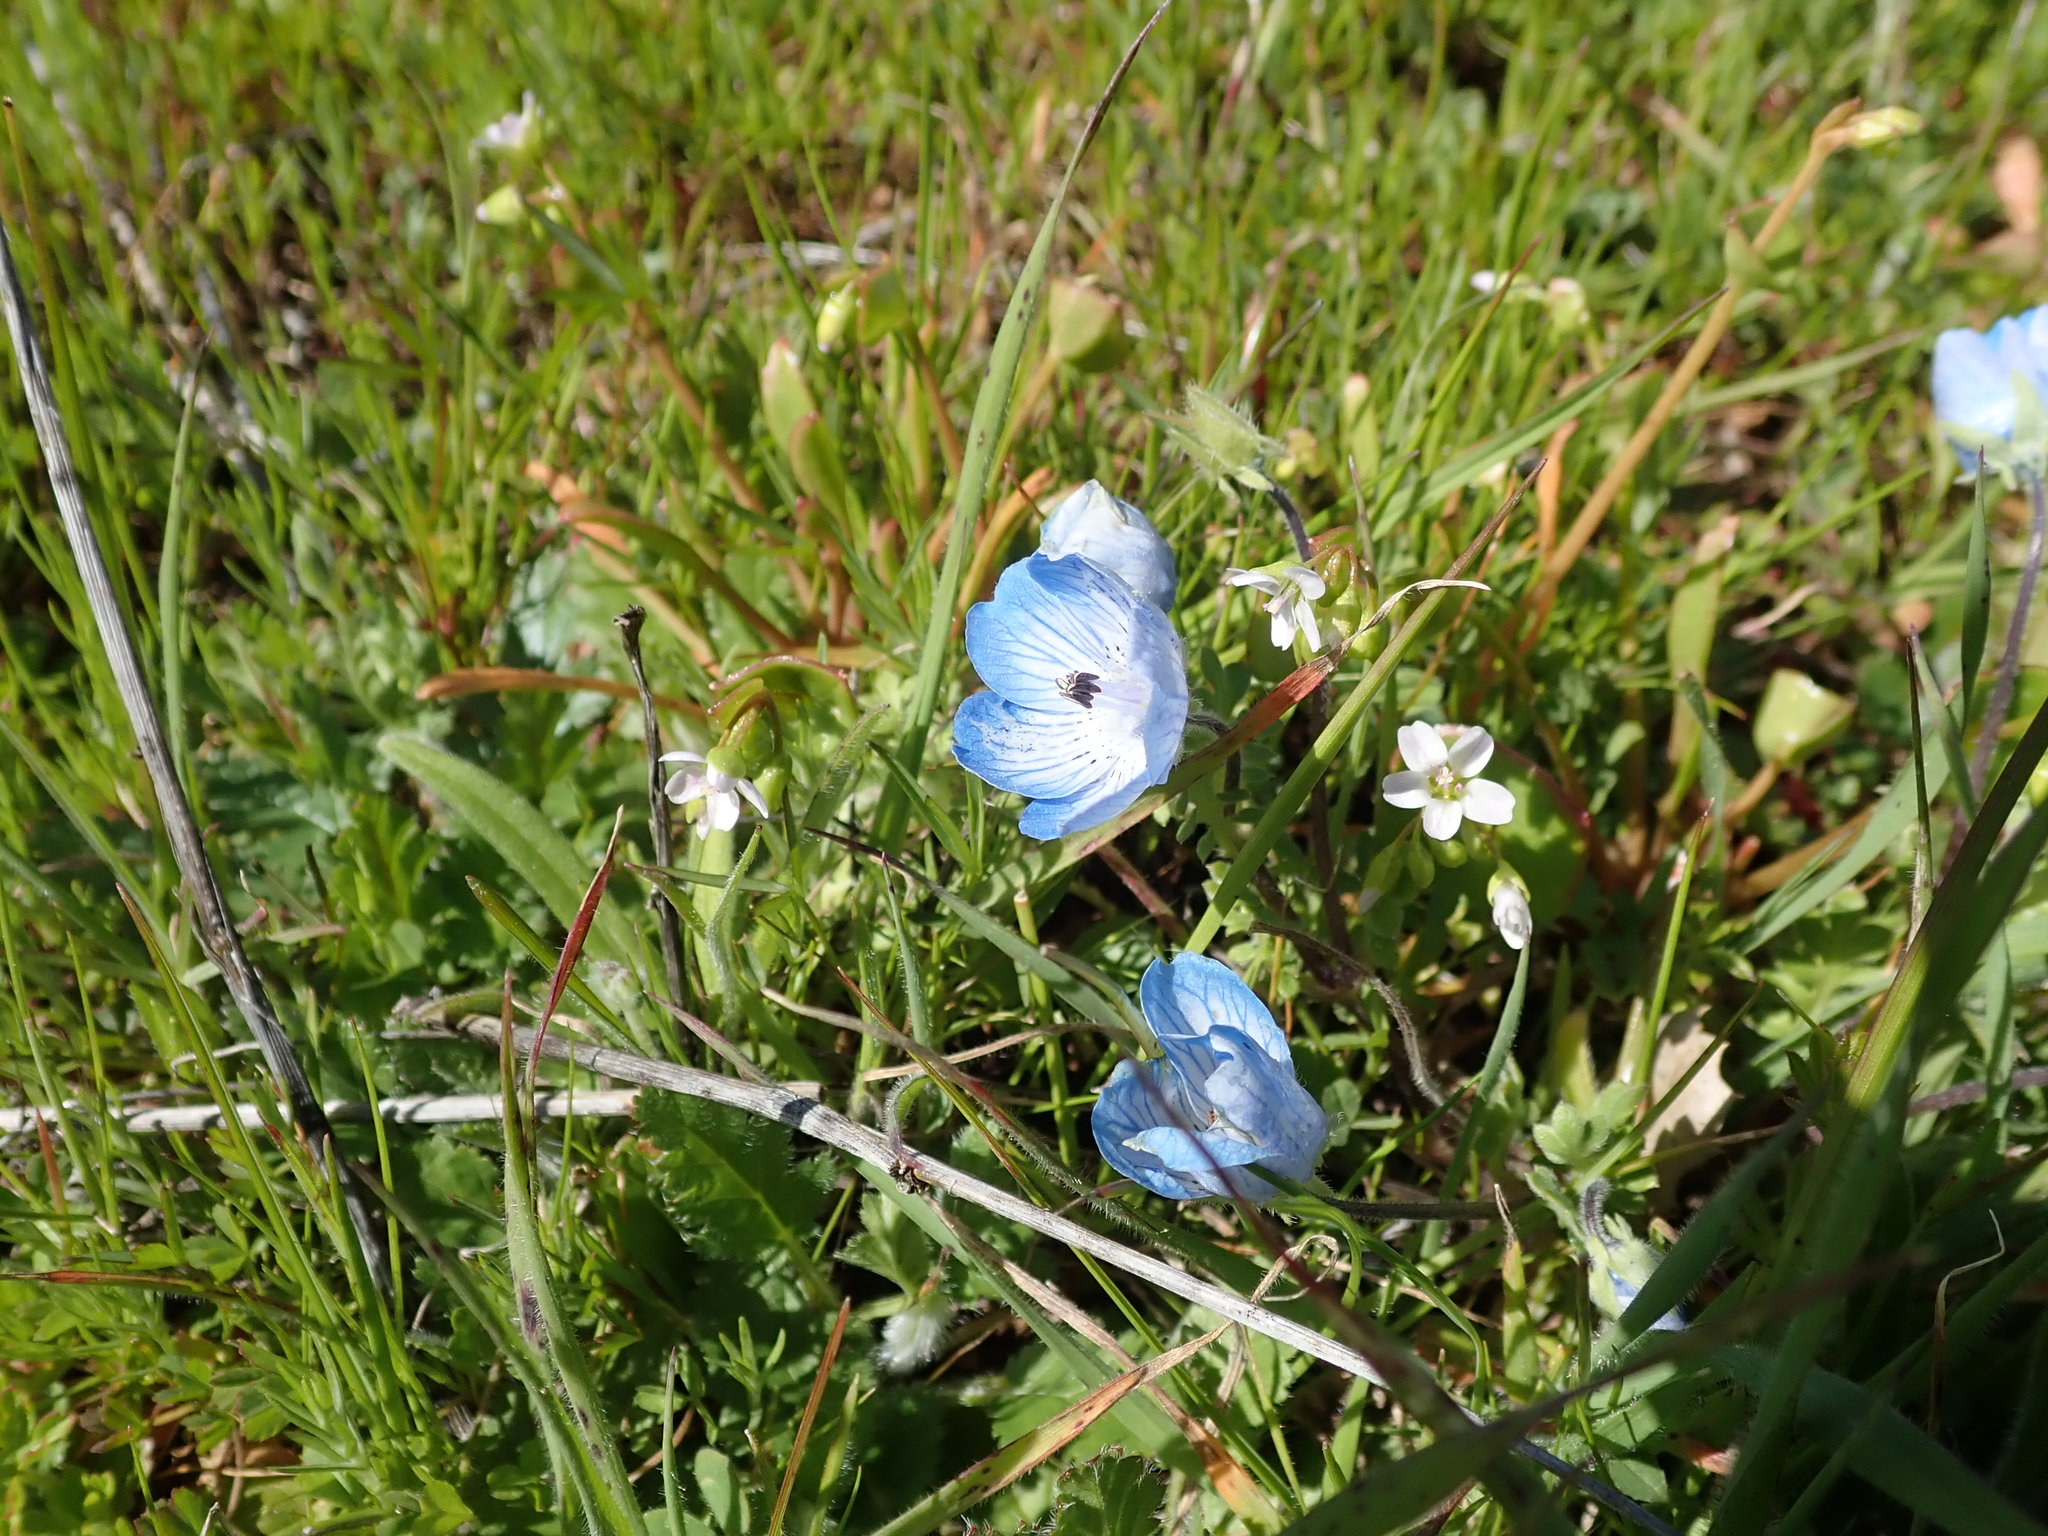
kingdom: Plantae
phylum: Tracheophyta
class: Magnoliopsida
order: Boraginales
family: Hydrophyllaceae
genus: Nemophila
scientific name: Nemophila menziesii
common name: Baby's-blue-eyes
